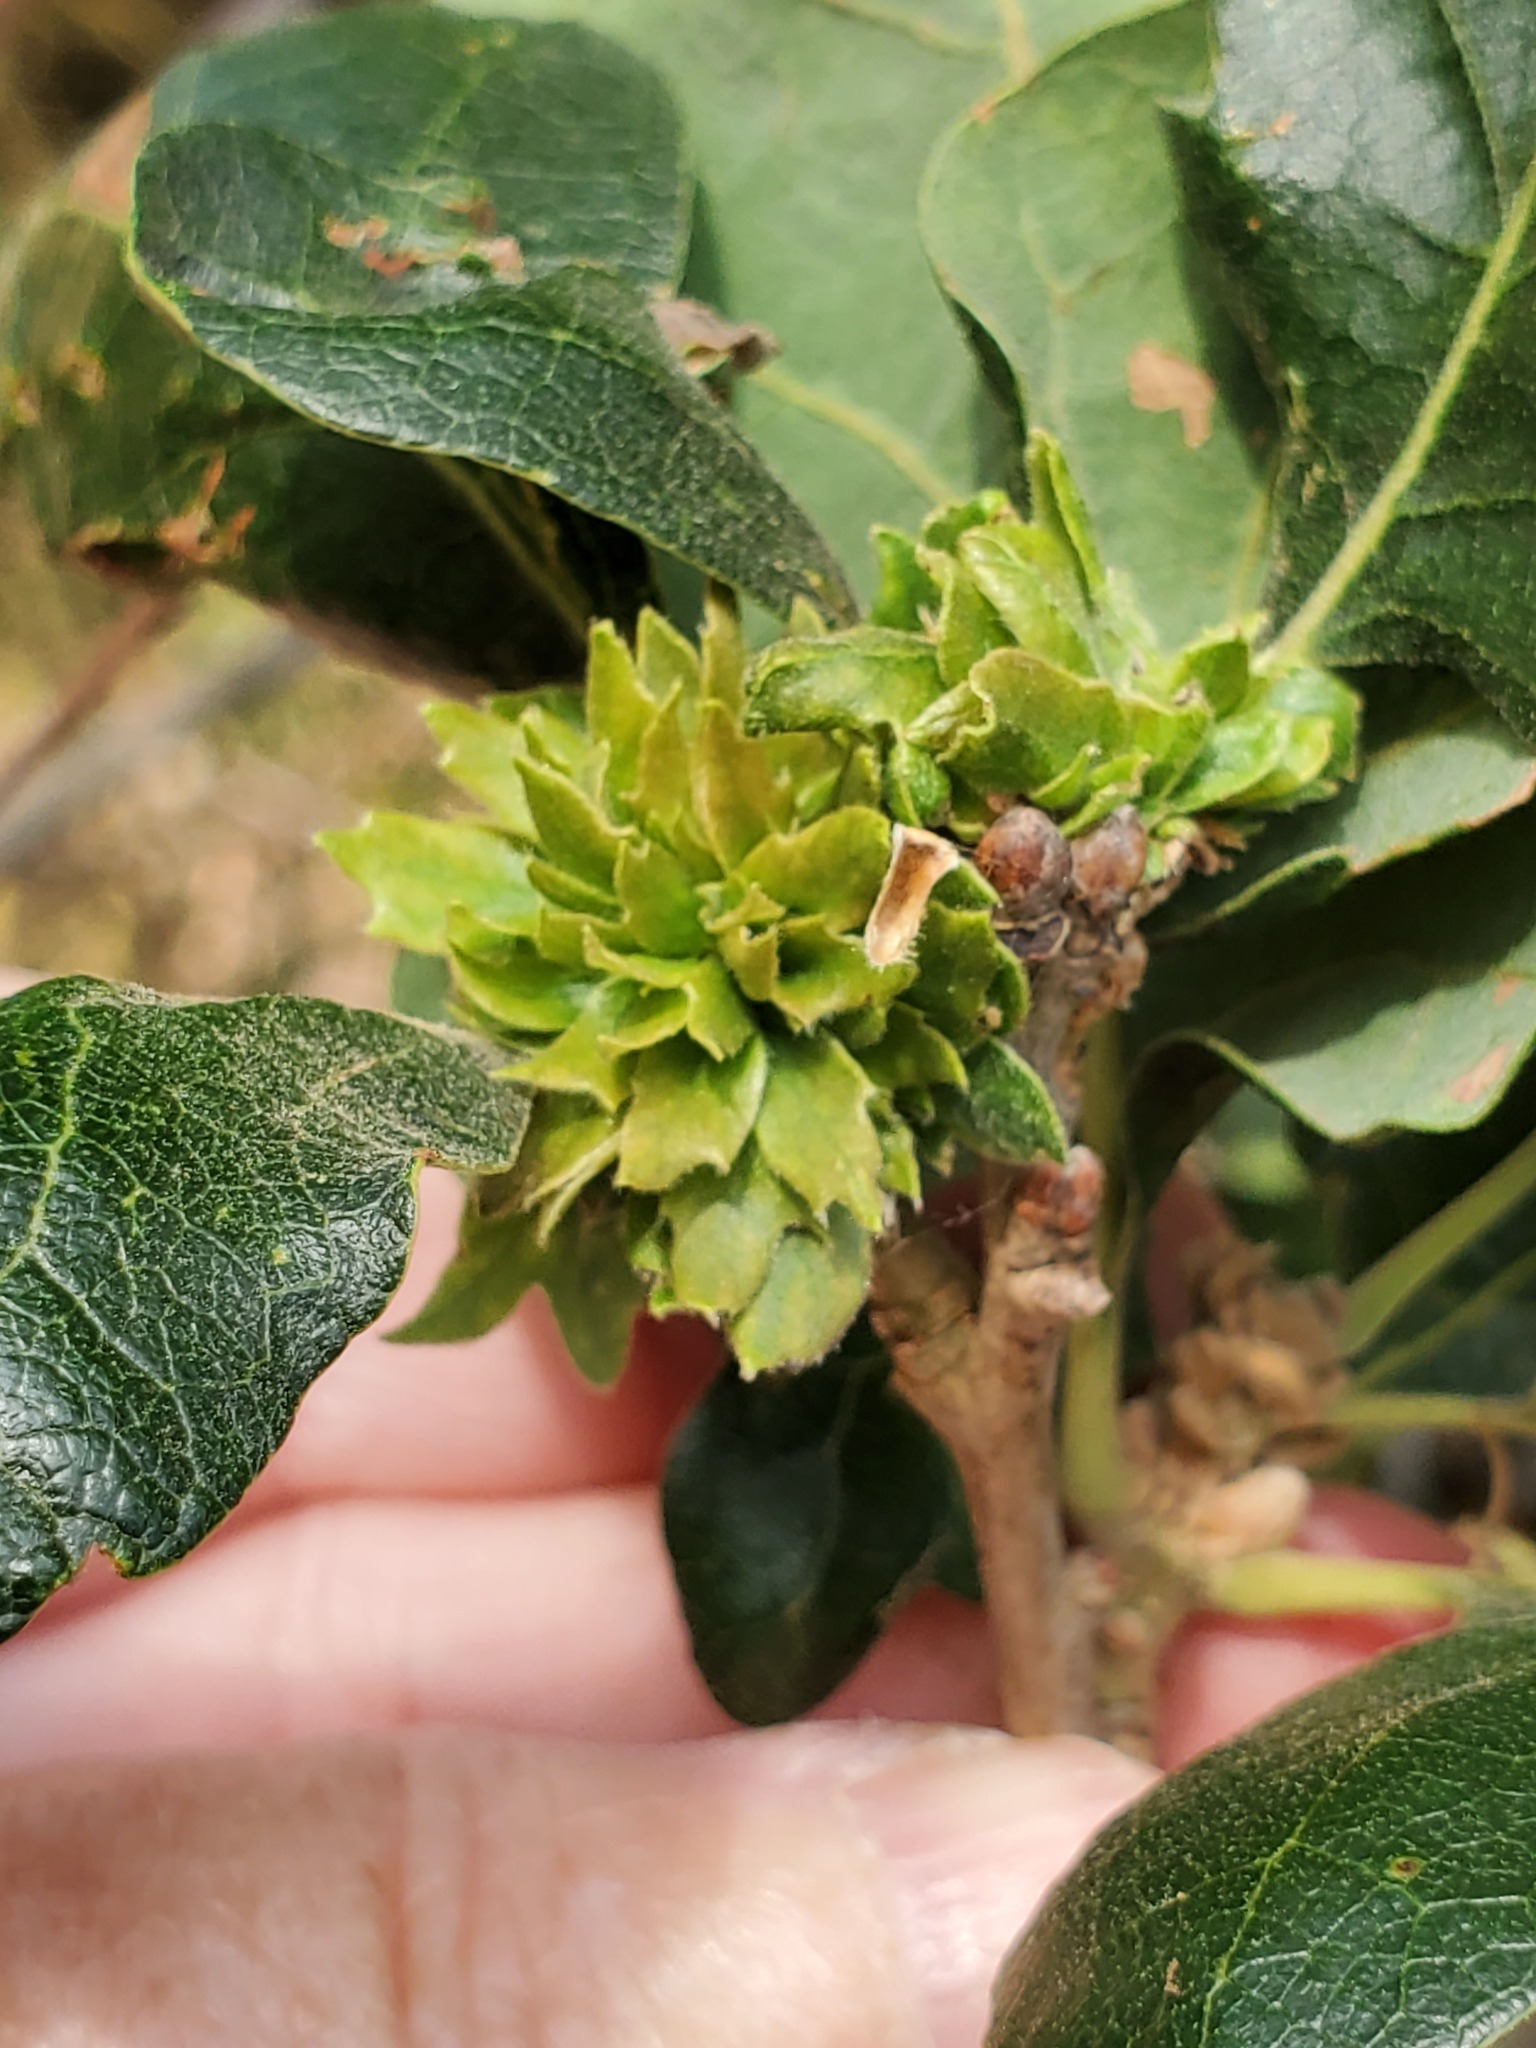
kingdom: Animalia
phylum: Arthropoda
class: Insecta
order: Hymenoptera
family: Cynipidae
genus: Andricus
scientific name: Andricus
